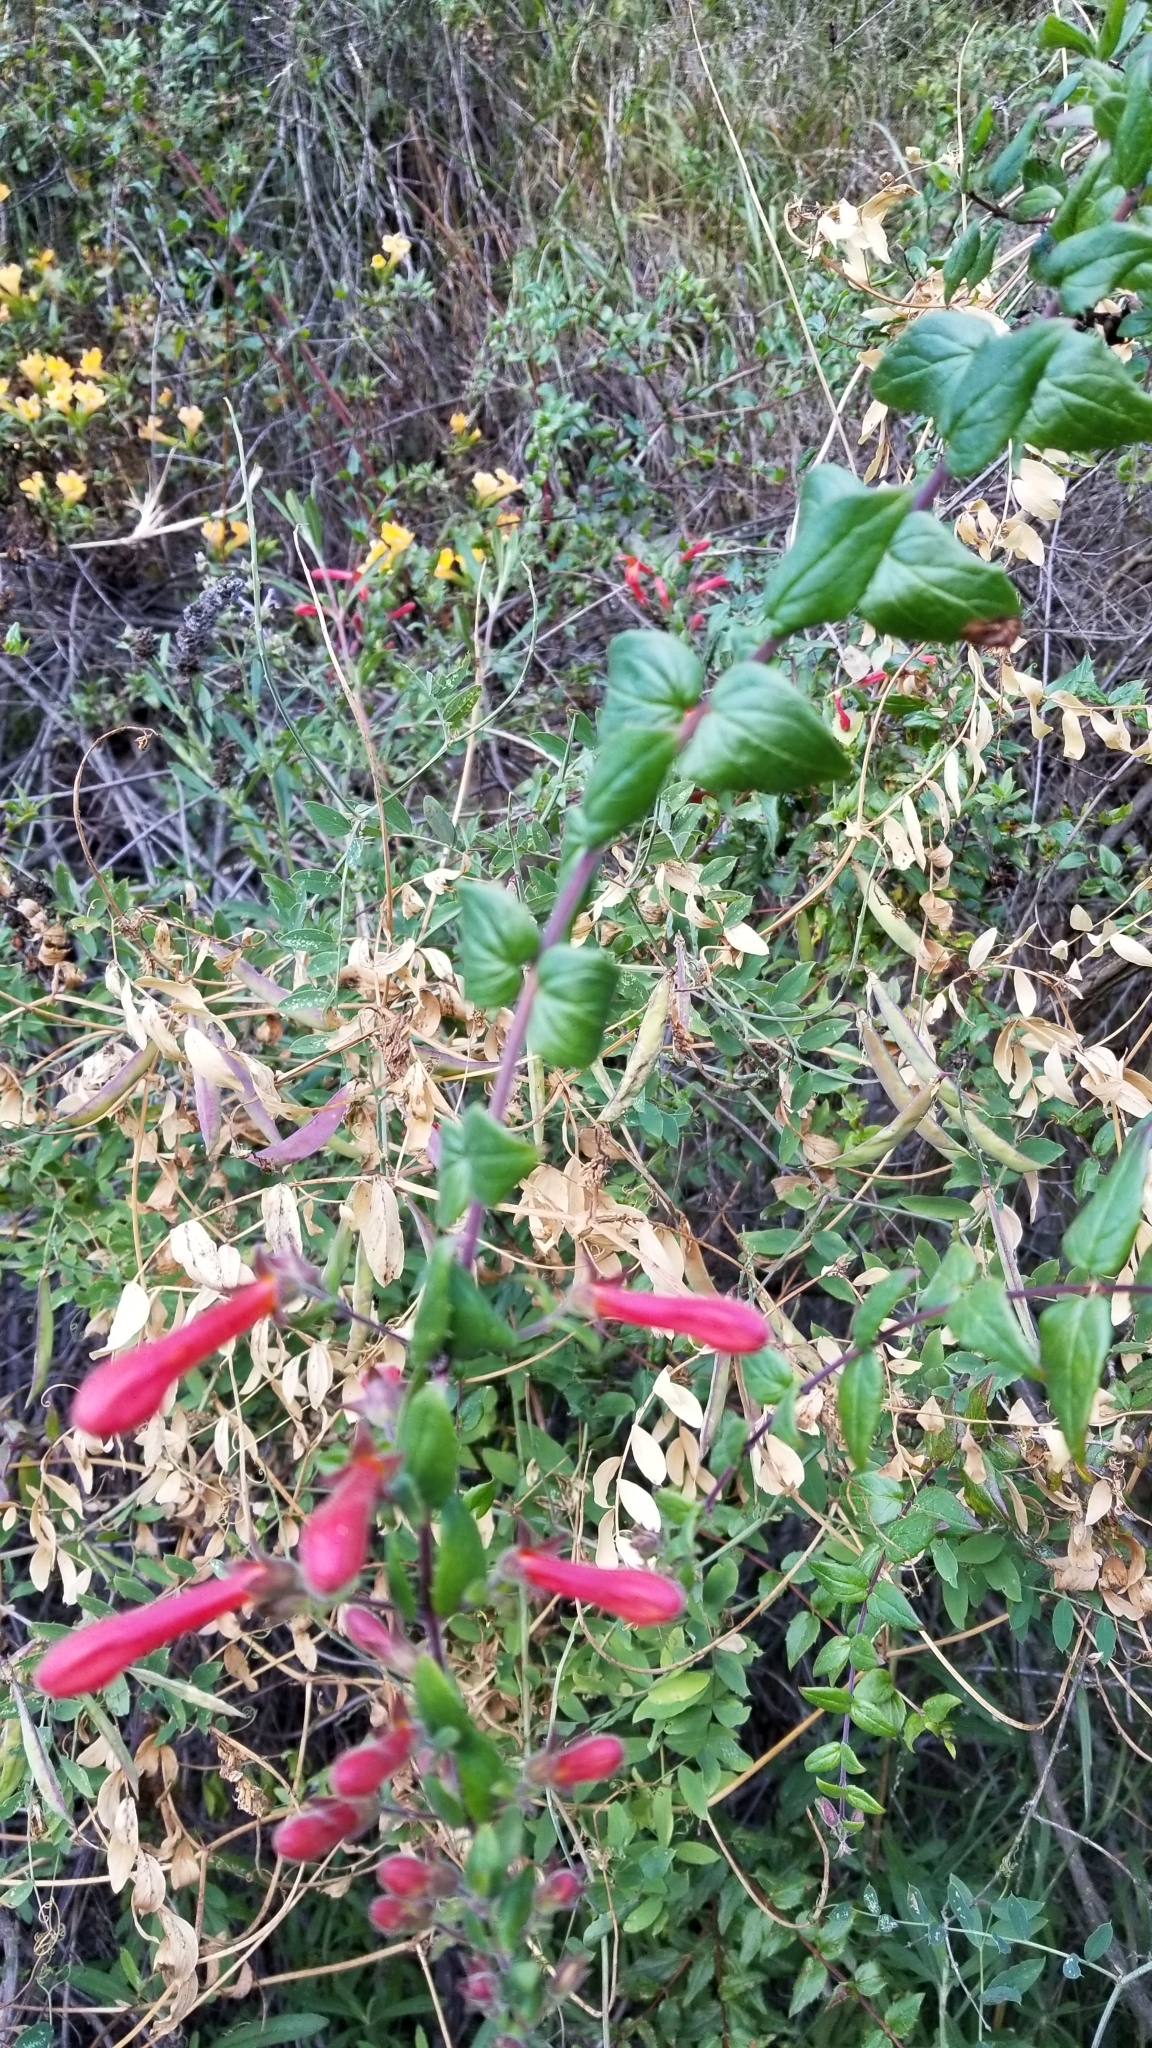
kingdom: Plantae
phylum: Tracheophyta
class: Magnoliopsida
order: Lamiales
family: Plantaginaceae
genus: Keckiella
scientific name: Keckiella cordifolia
